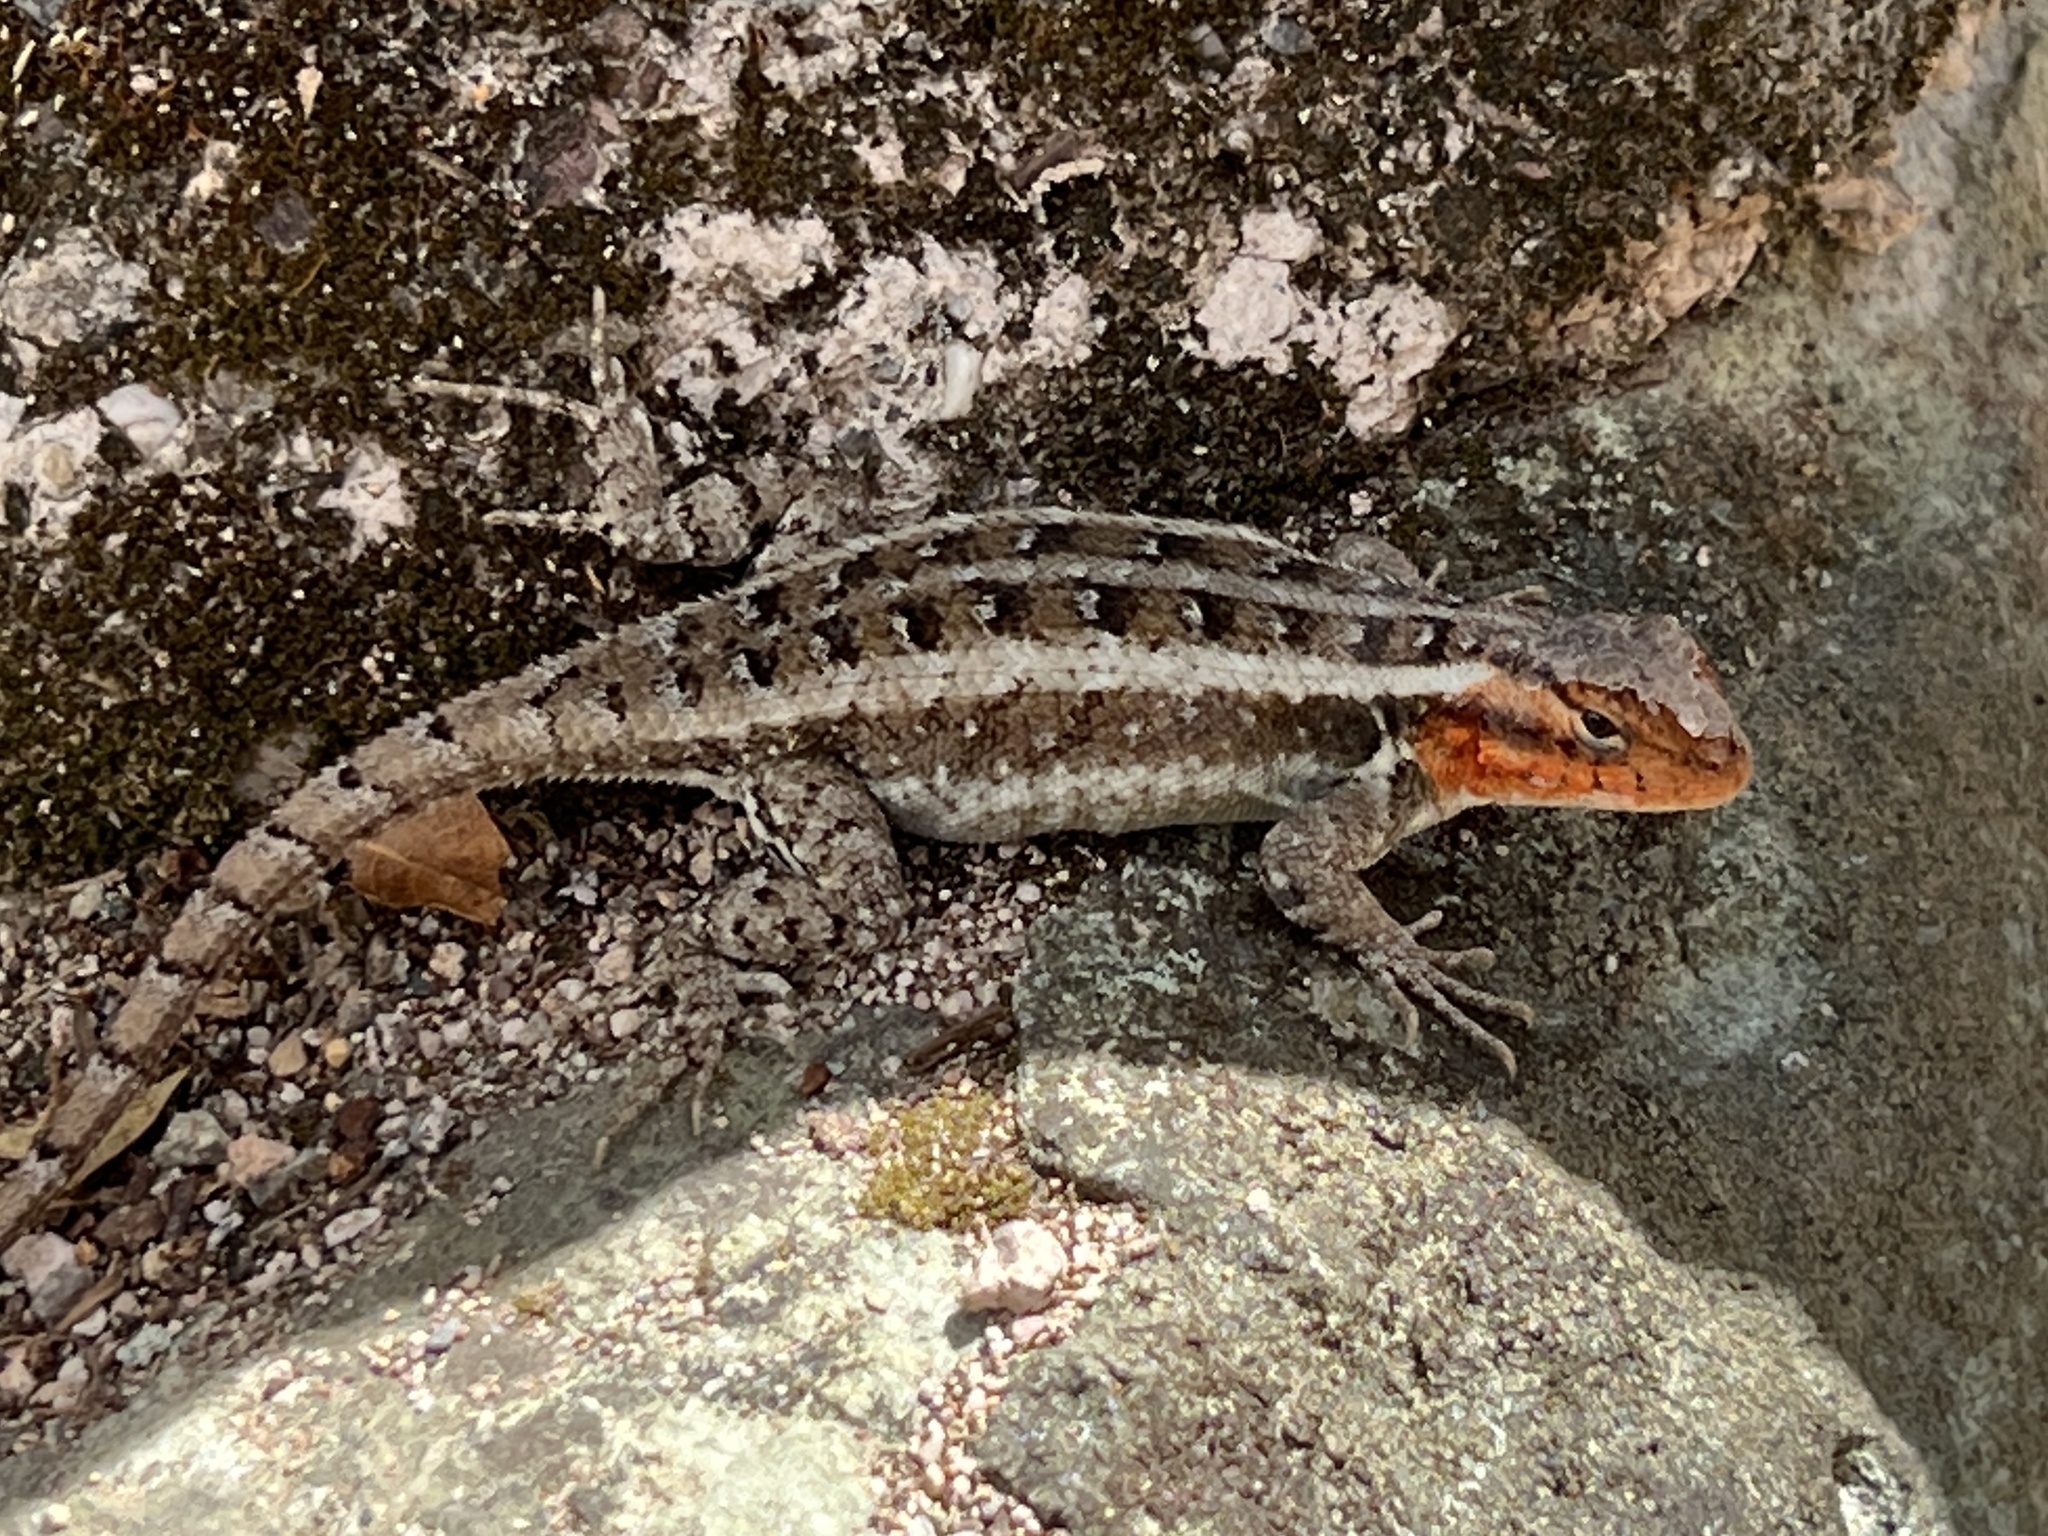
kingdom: Animalia
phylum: Chordata
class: Squamata
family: Phrynosomatidae
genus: Sceloporus
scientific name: Sceloporus variabilis
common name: Rosebelly lizard
